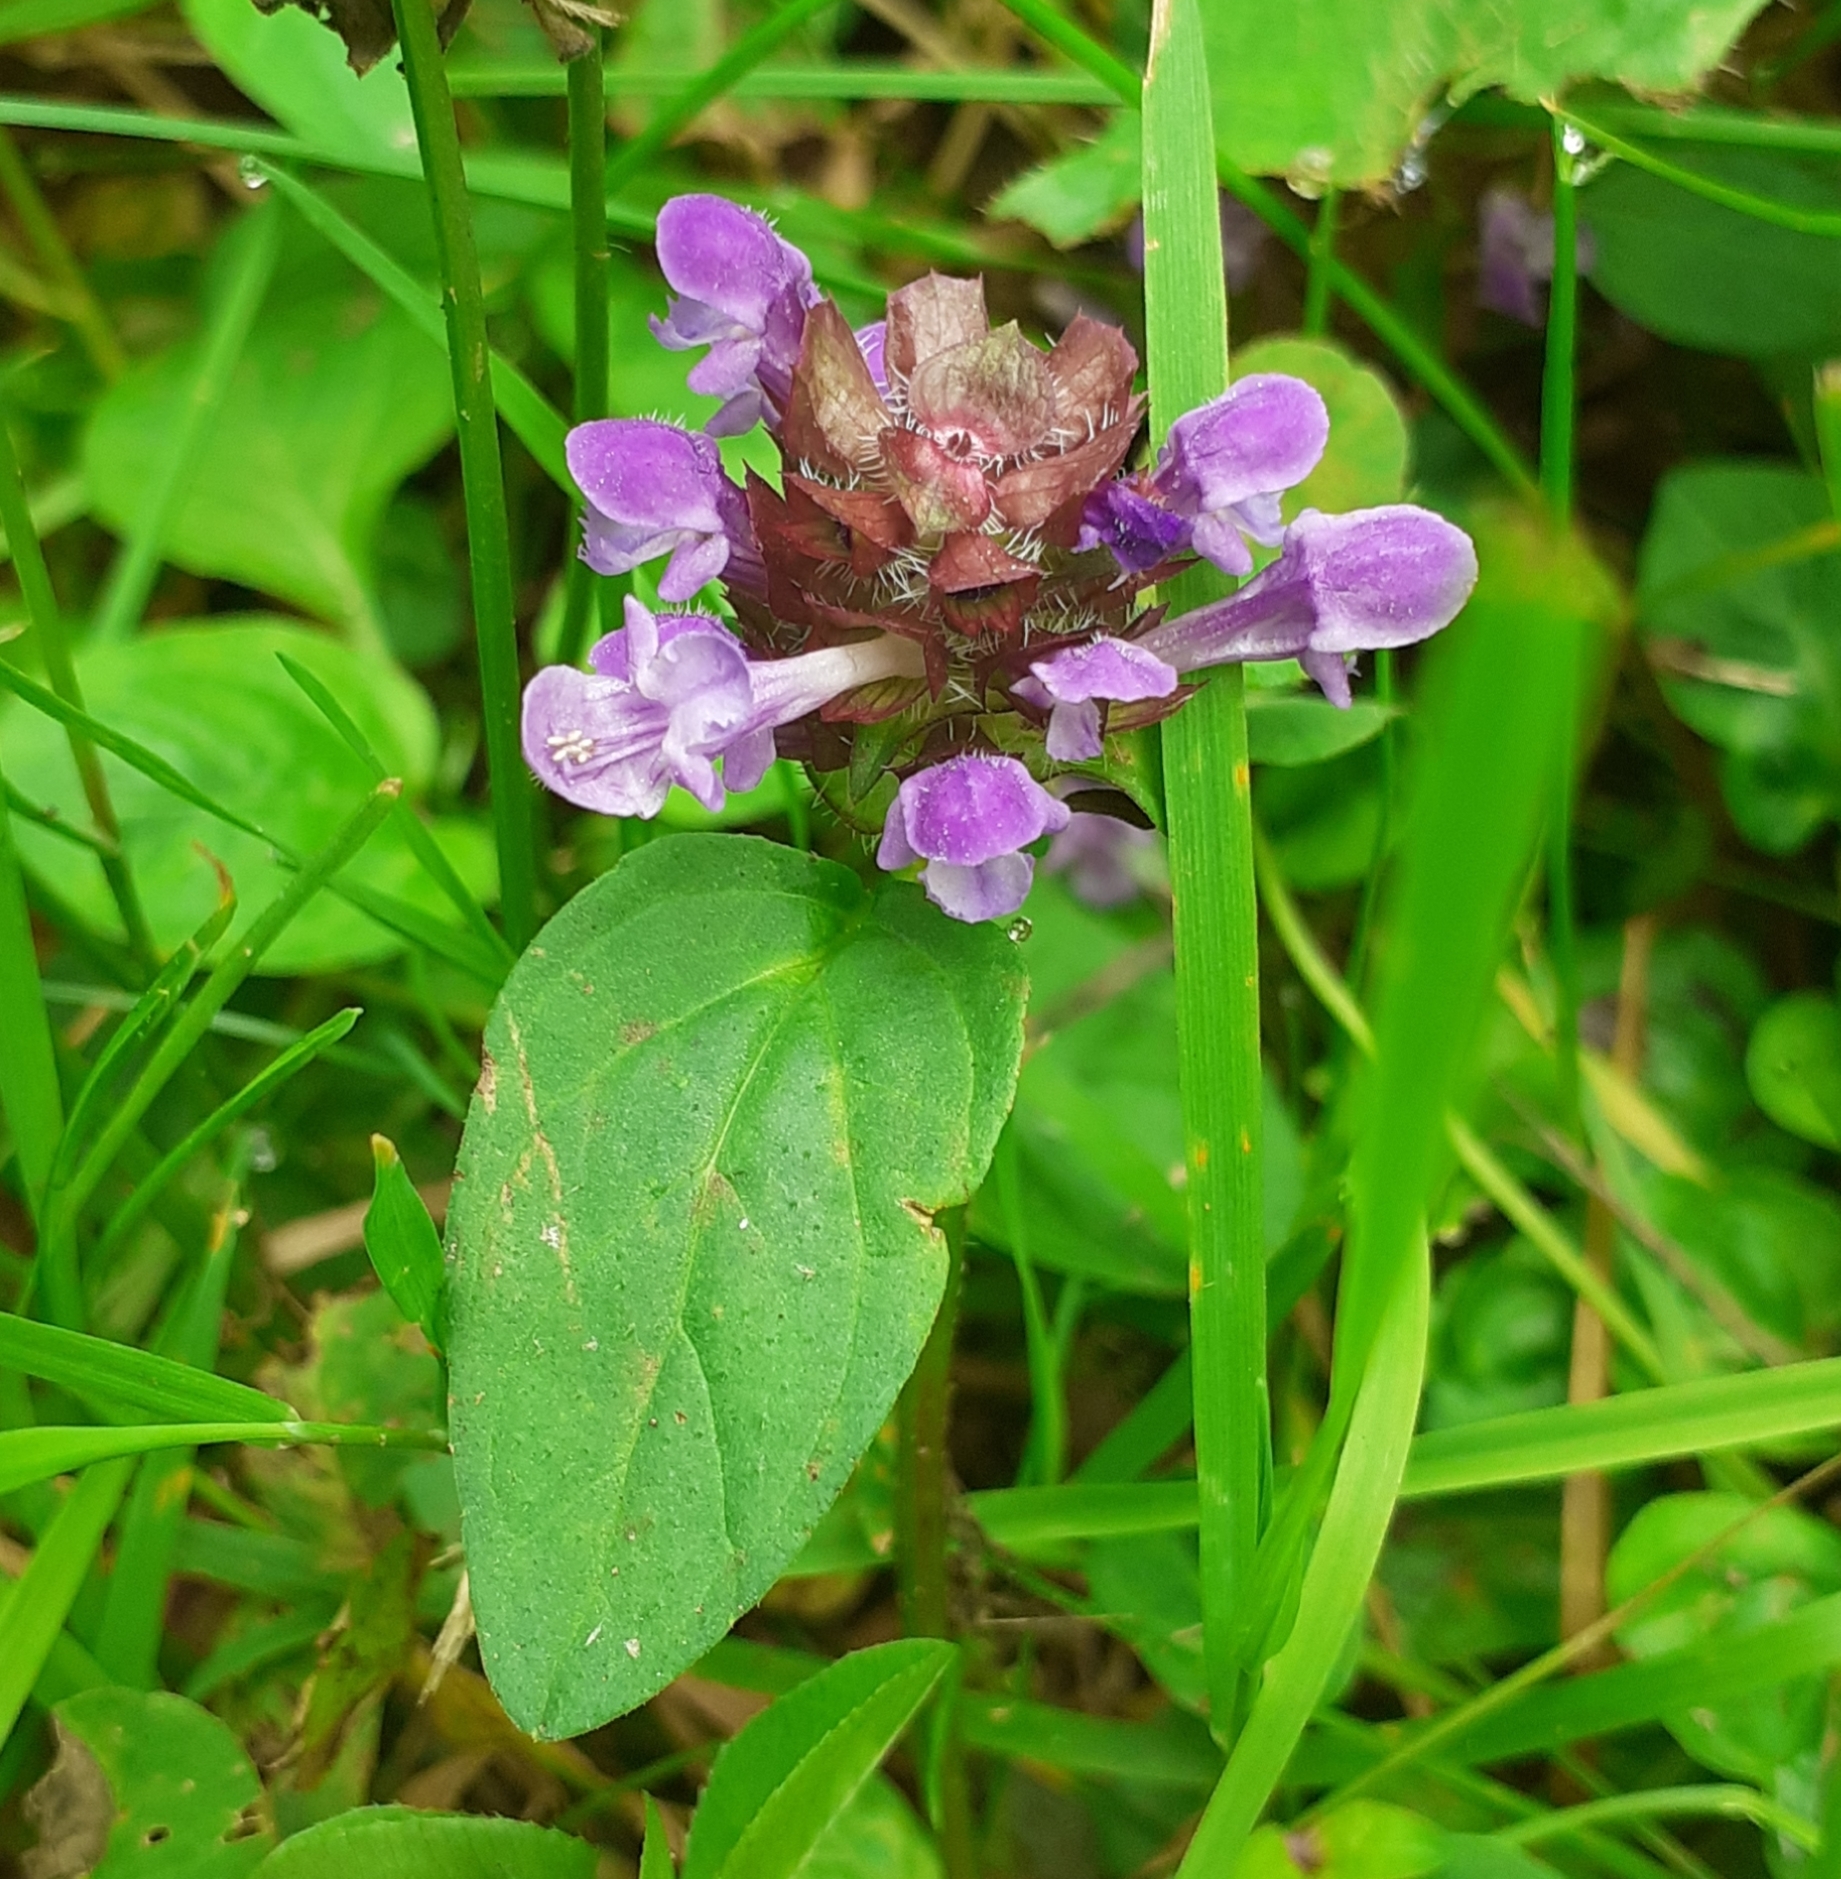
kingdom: Plantae
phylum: Tracheophyta
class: Magnoliopsida
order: Lamiales
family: Lamiaceae
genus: Prunella
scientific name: Prunella vulgaris
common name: Heal-all
